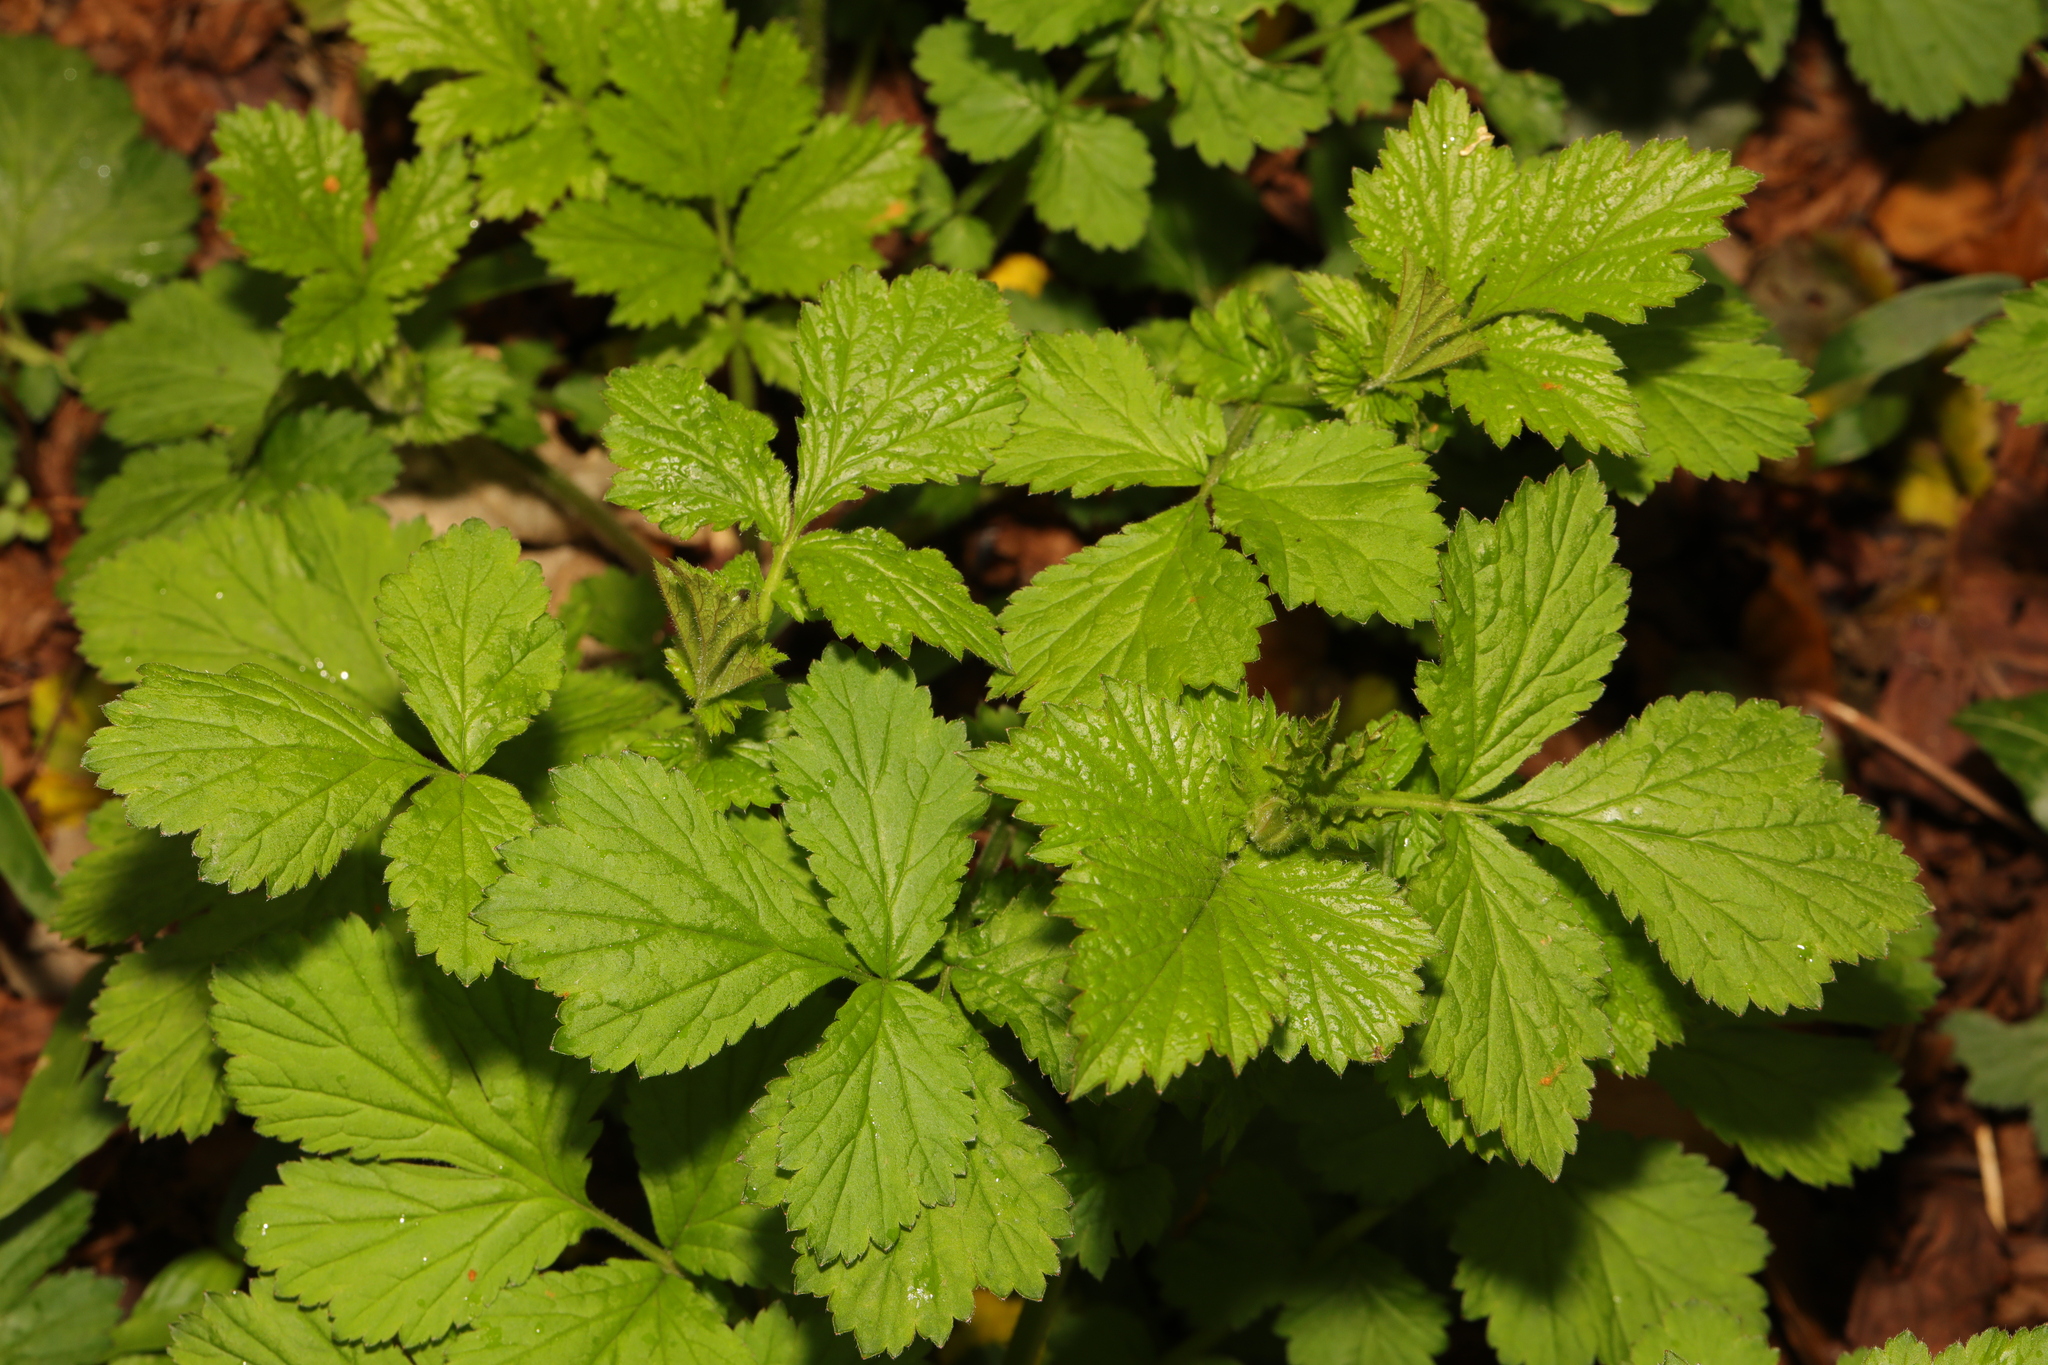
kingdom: Plantae
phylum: Tracheophyta
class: Magnoliopsida
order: Rosales
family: Rosaceae
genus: Geum
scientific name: Geum urbanum
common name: Wood avens
